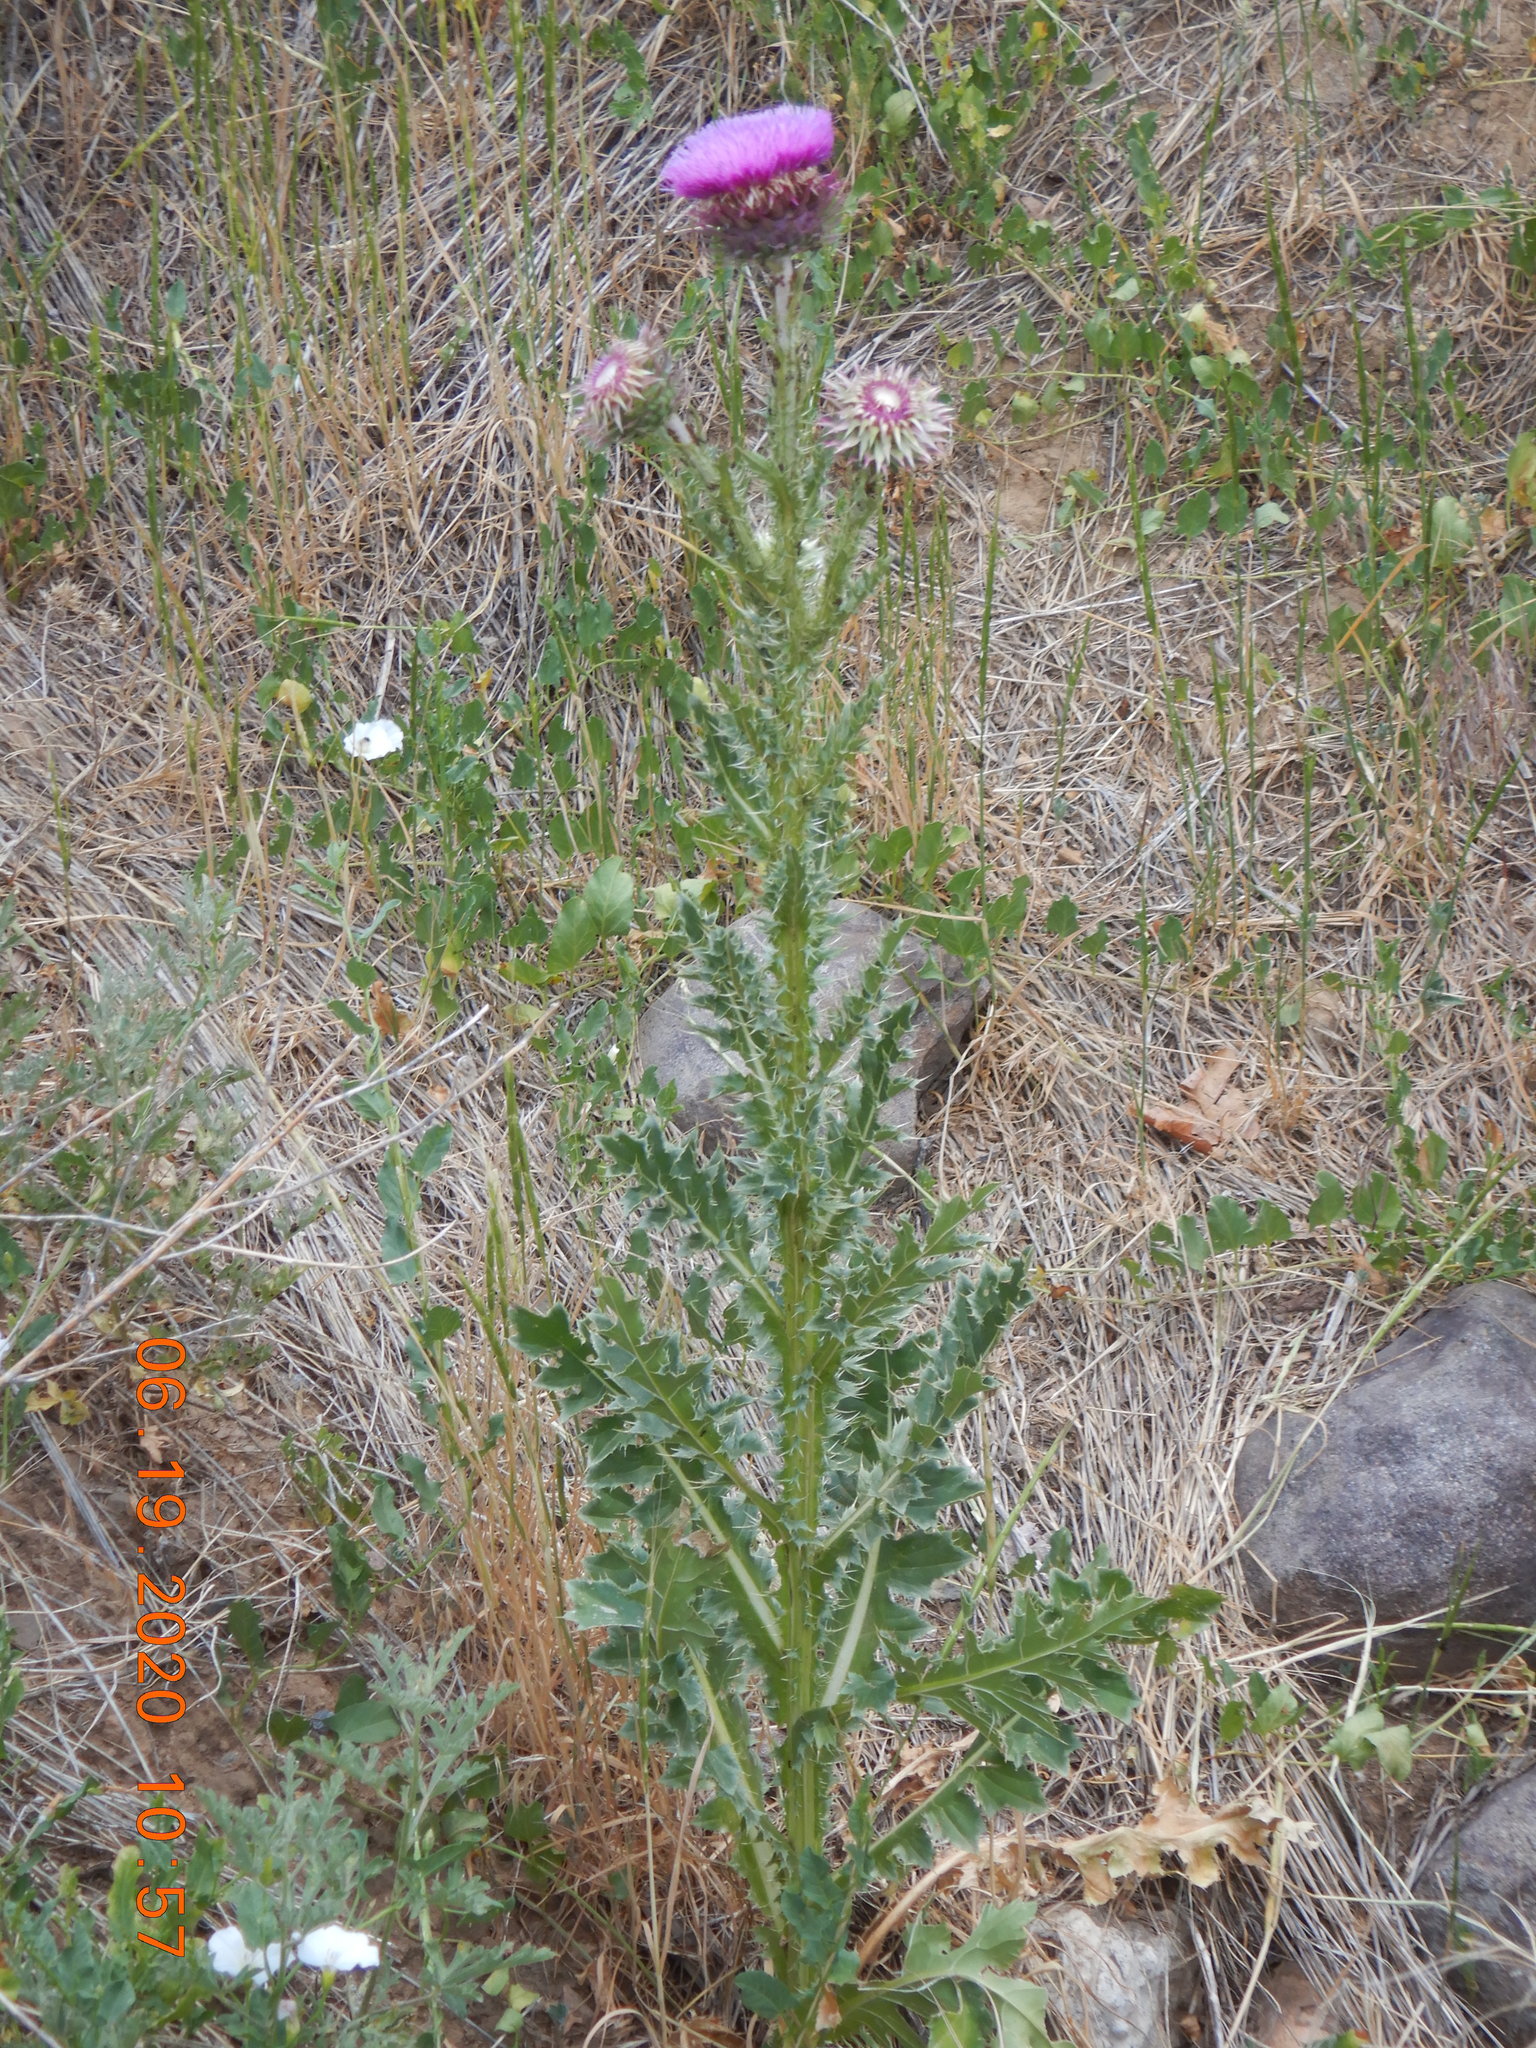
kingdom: Plantae
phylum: Tracheophyta
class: Magnoliopsida
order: Asterales
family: Asteraceae
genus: Carduus
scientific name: Carduus nutans
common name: Musk thistle
